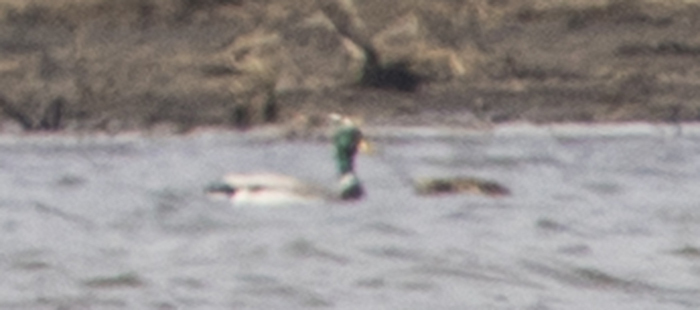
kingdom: Animalia
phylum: Chordata
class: Aves
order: Anseriformes
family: Anatidae
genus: Anas
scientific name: Anas platyrhynchos
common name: Mallard
